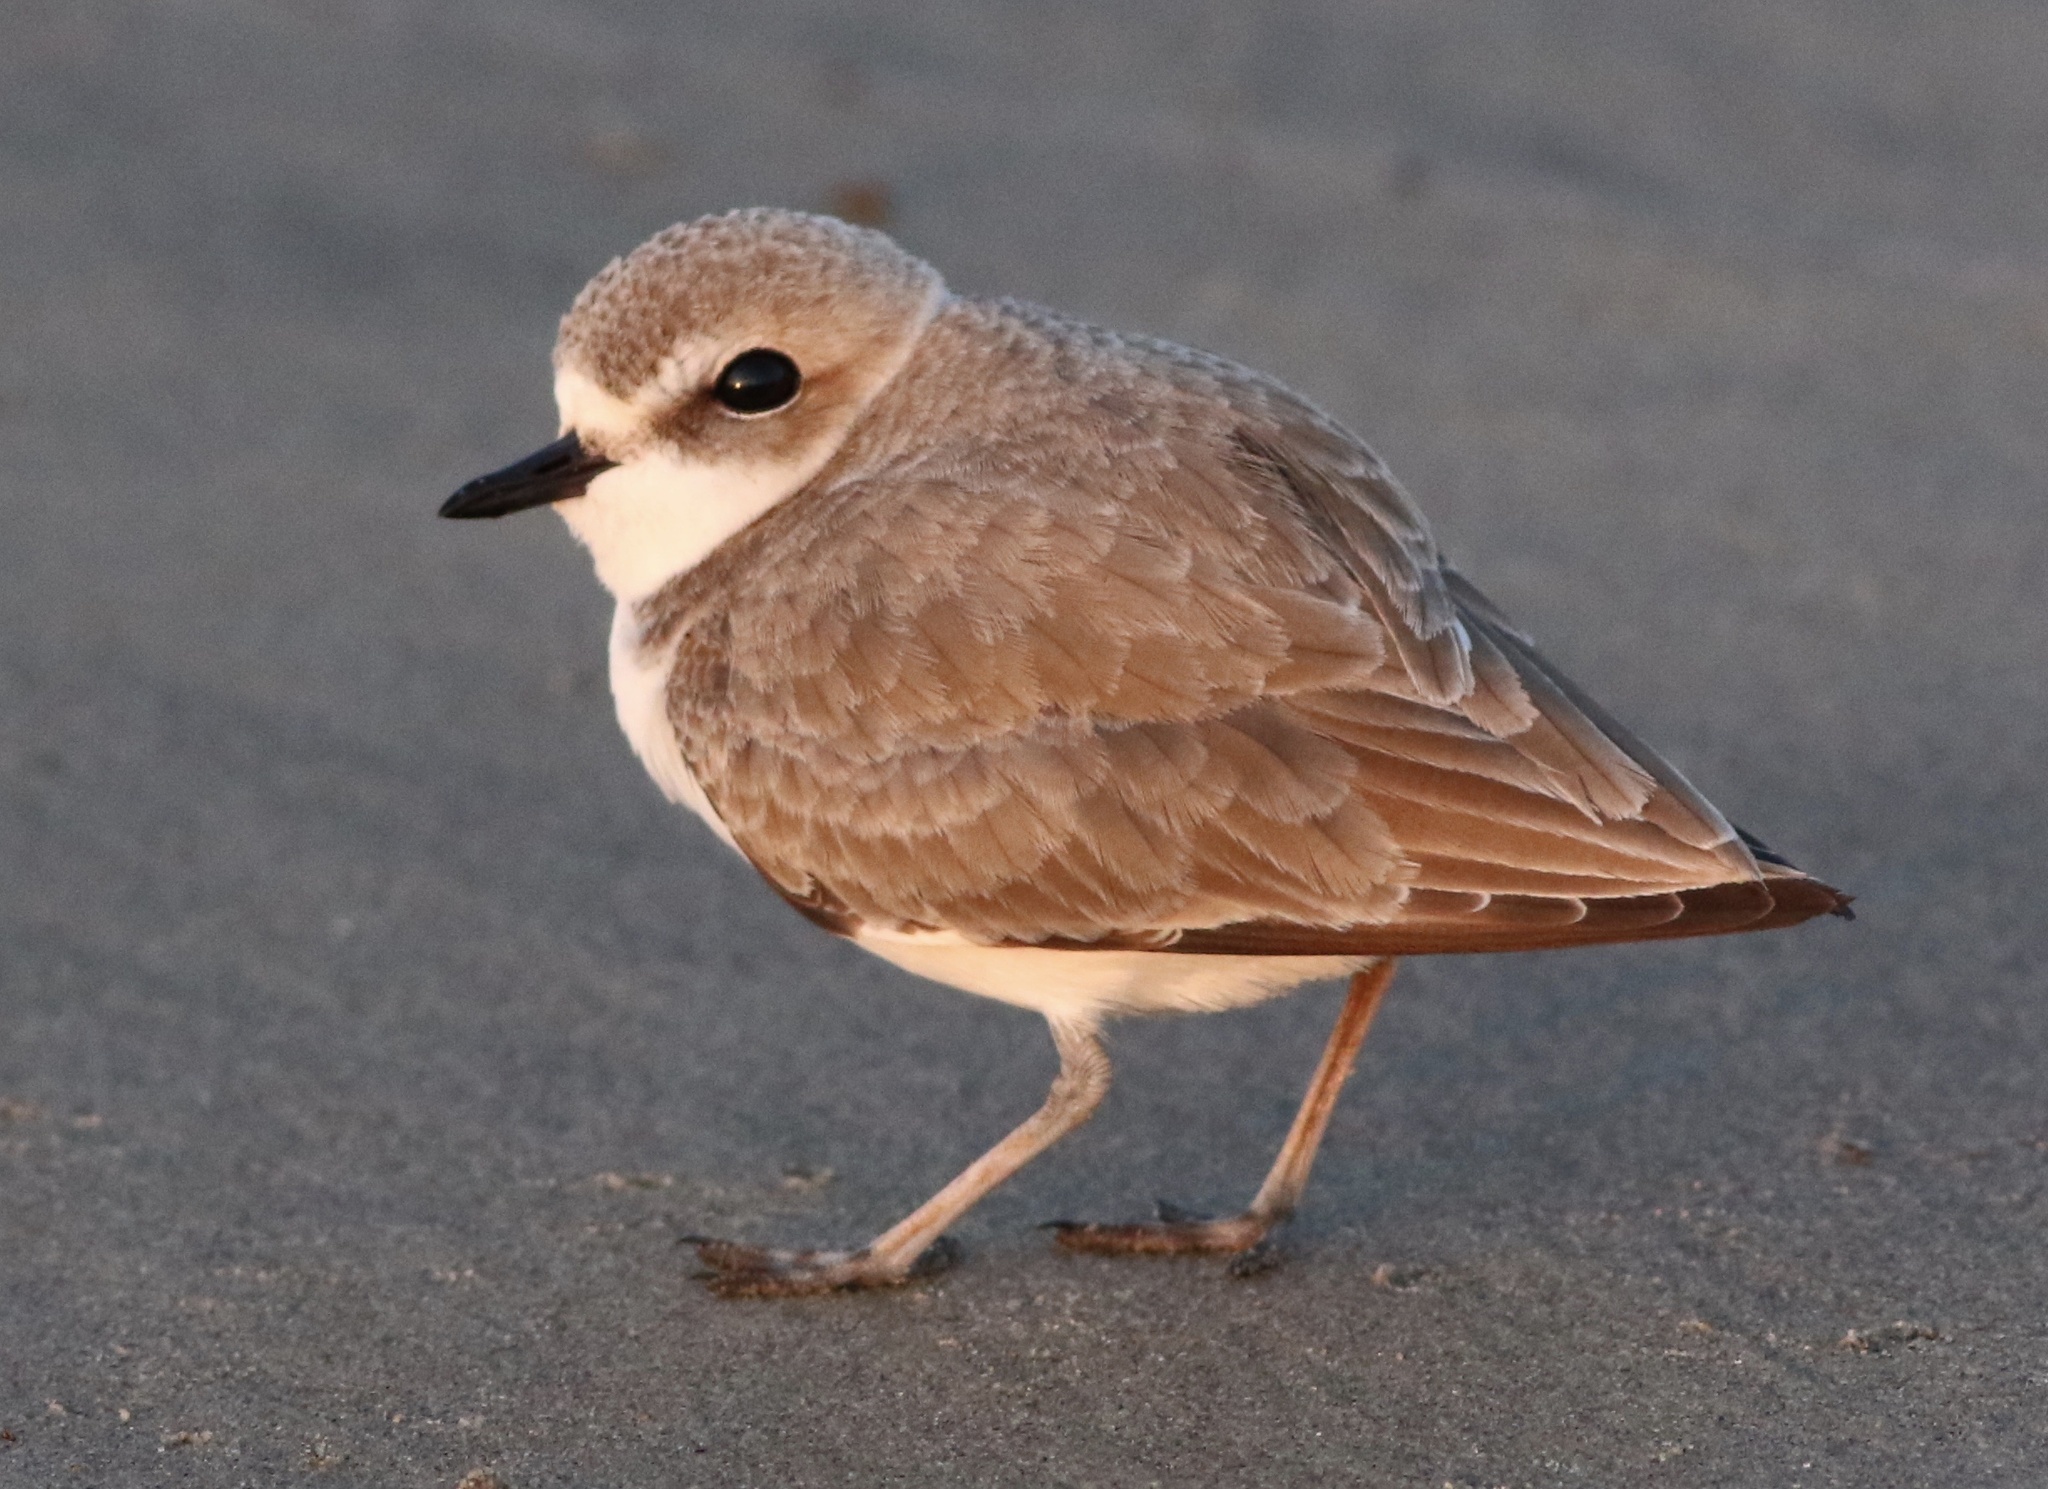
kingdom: Animalia
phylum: Chordata
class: Aves
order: Charadriiformes
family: Charadriidae
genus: Anarhynchus
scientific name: Anarhynchus
